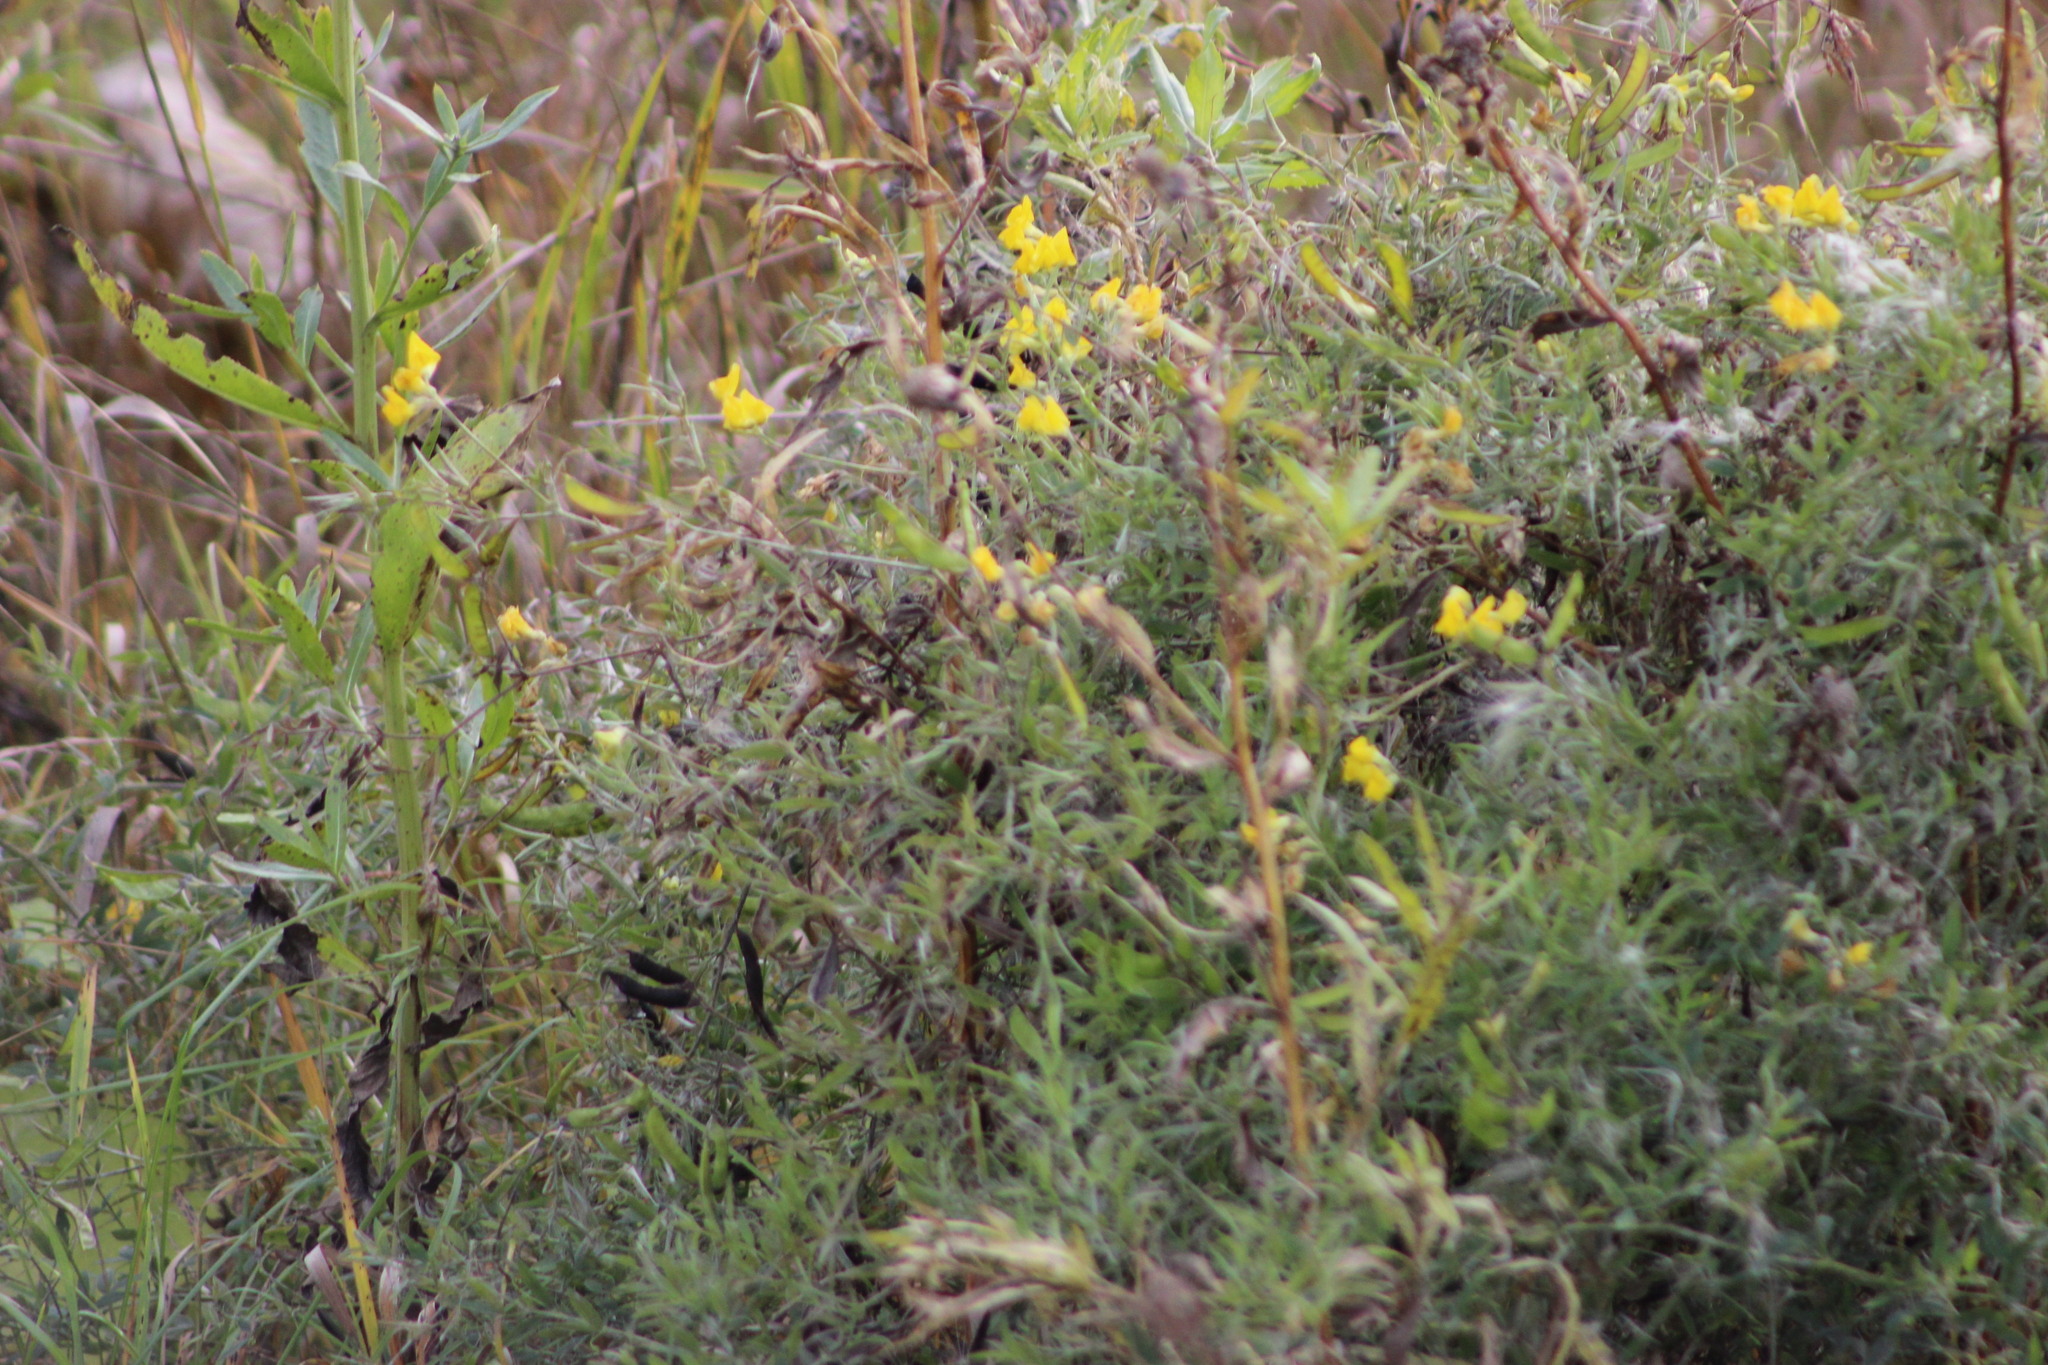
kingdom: Plantae
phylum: Tracheophyta
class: Magnoliopsida
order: Fabales
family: Fabaceae
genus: Lathyrus
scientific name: Lathyrus pratensis
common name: Meadow vetchling
